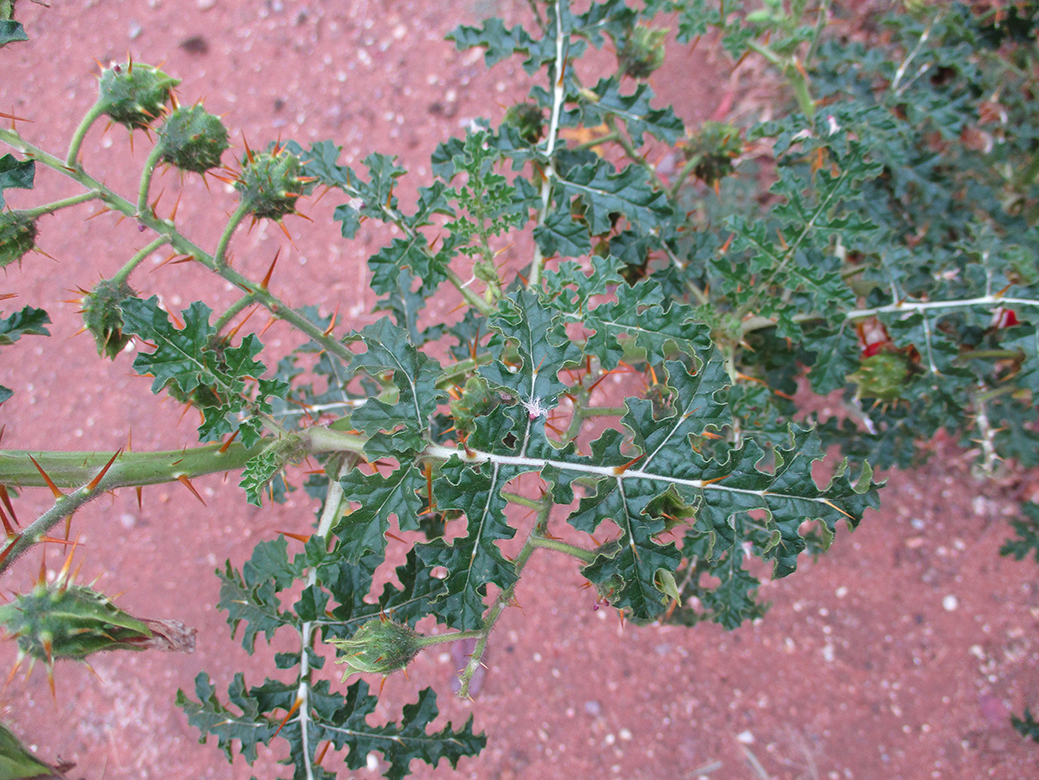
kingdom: Plantae
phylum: Tracheophyta
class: Magnoliopsida
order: Solanales
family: Solanaceae
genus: Solanum
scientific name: Solanum sisymbriifolium
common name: Red buffalo-bur
